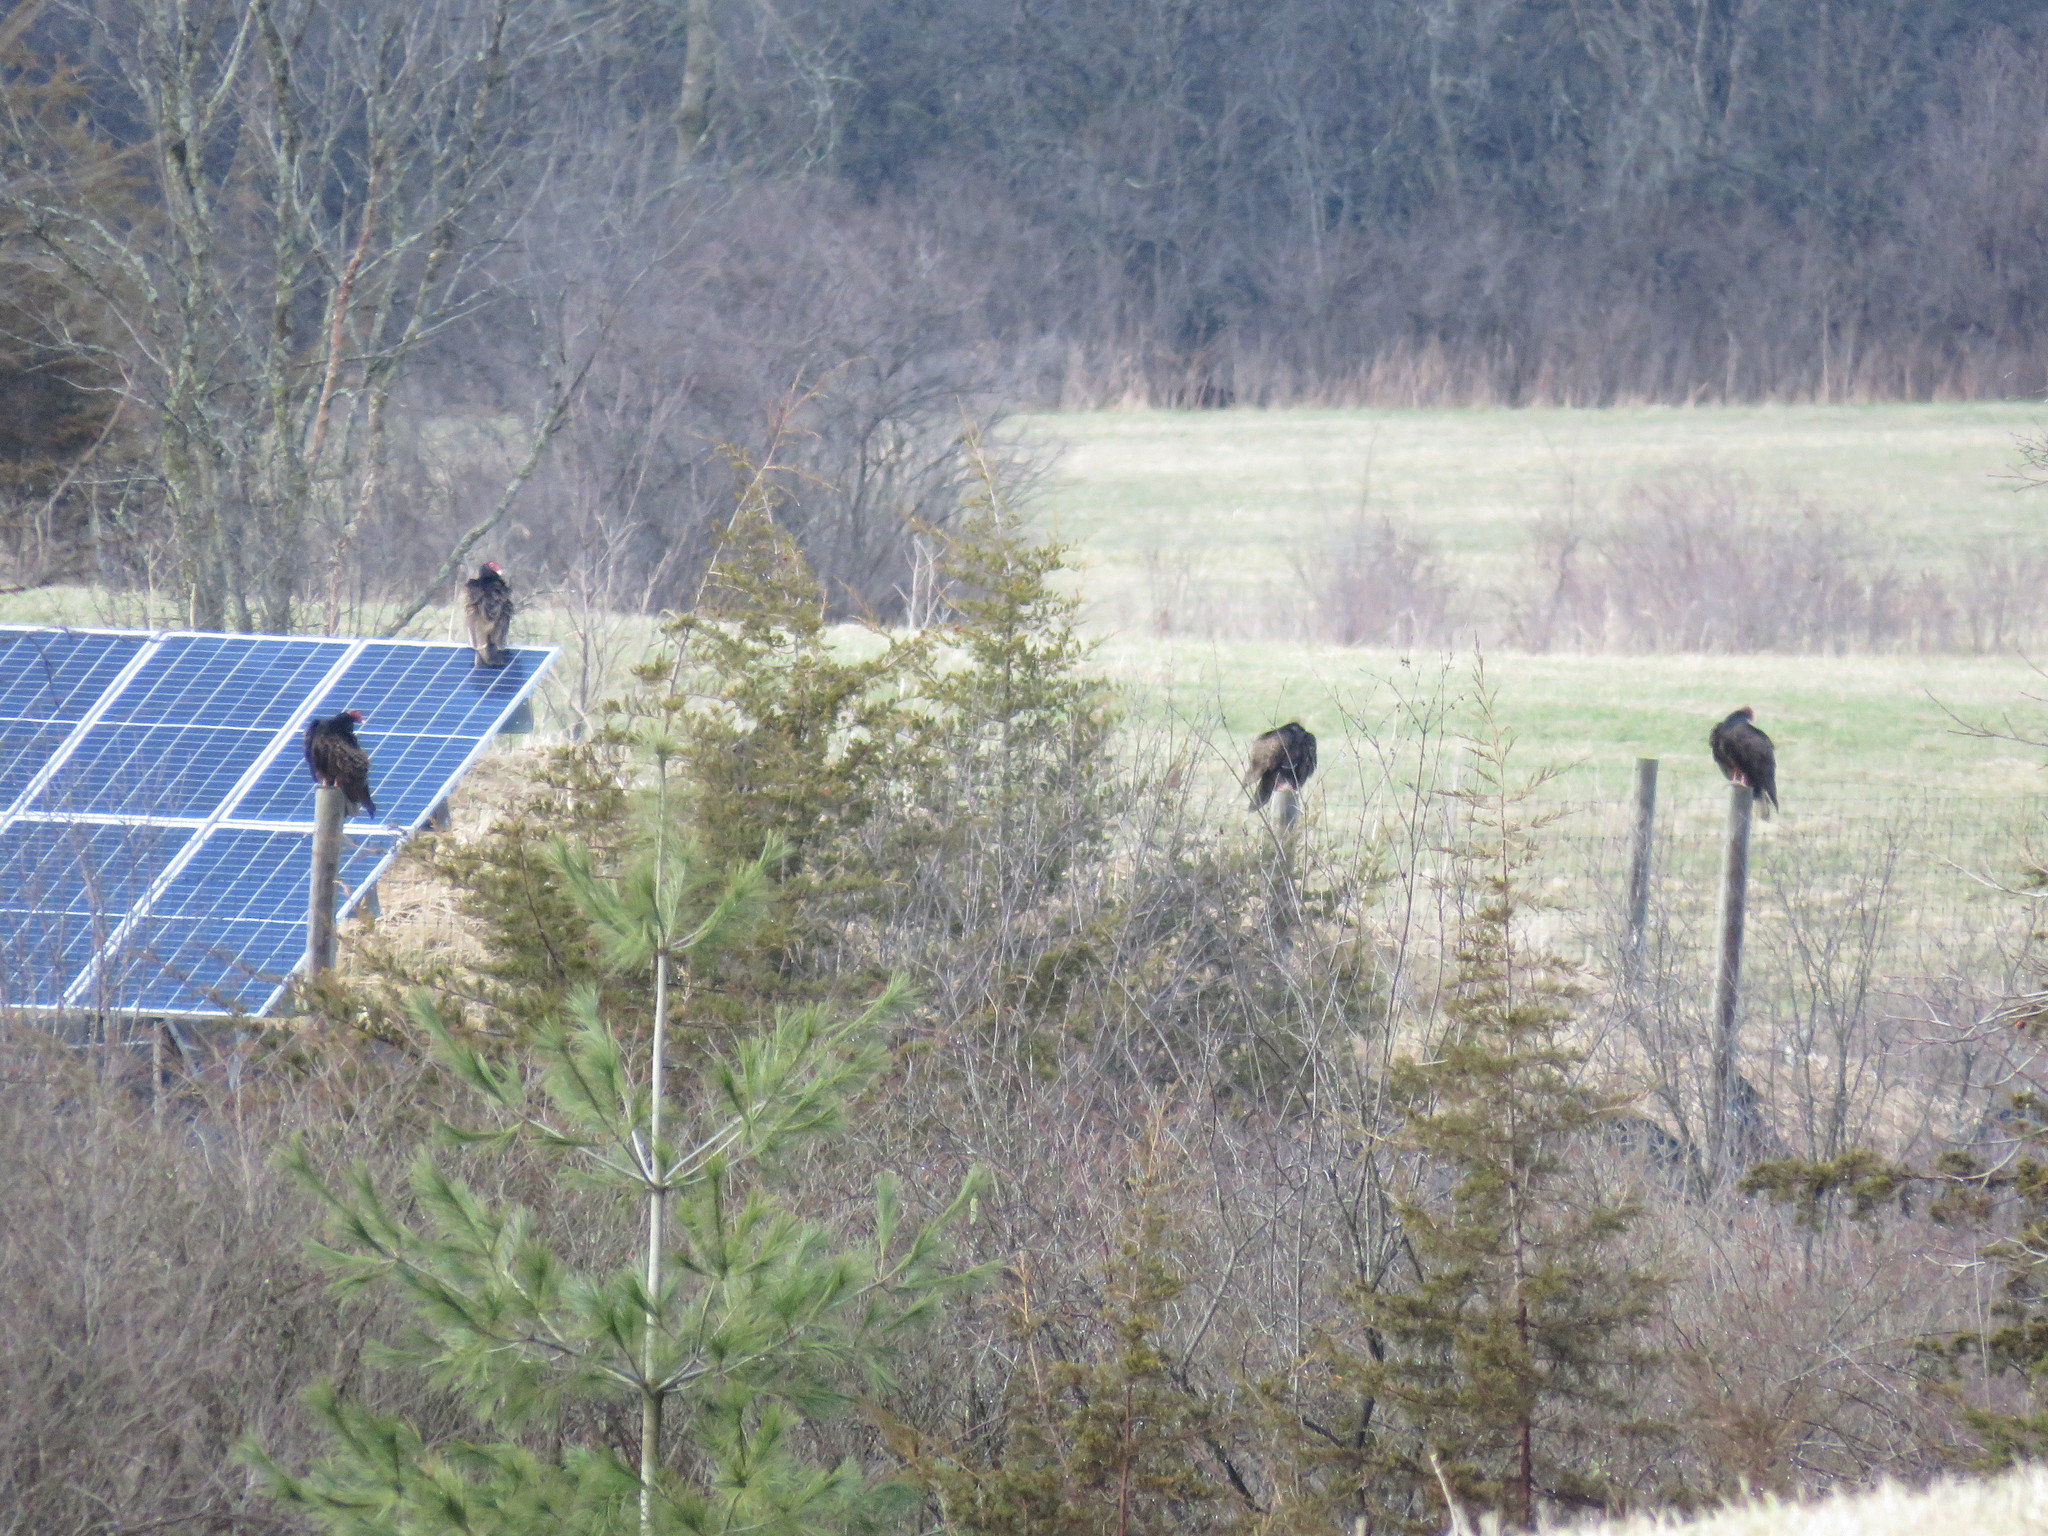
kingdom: Animalia
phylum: Chordata
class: Aves
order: Accipitriformes
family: Cathartidae
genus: Cathartes
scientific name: Cathartes aura
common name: Turkey vulture
